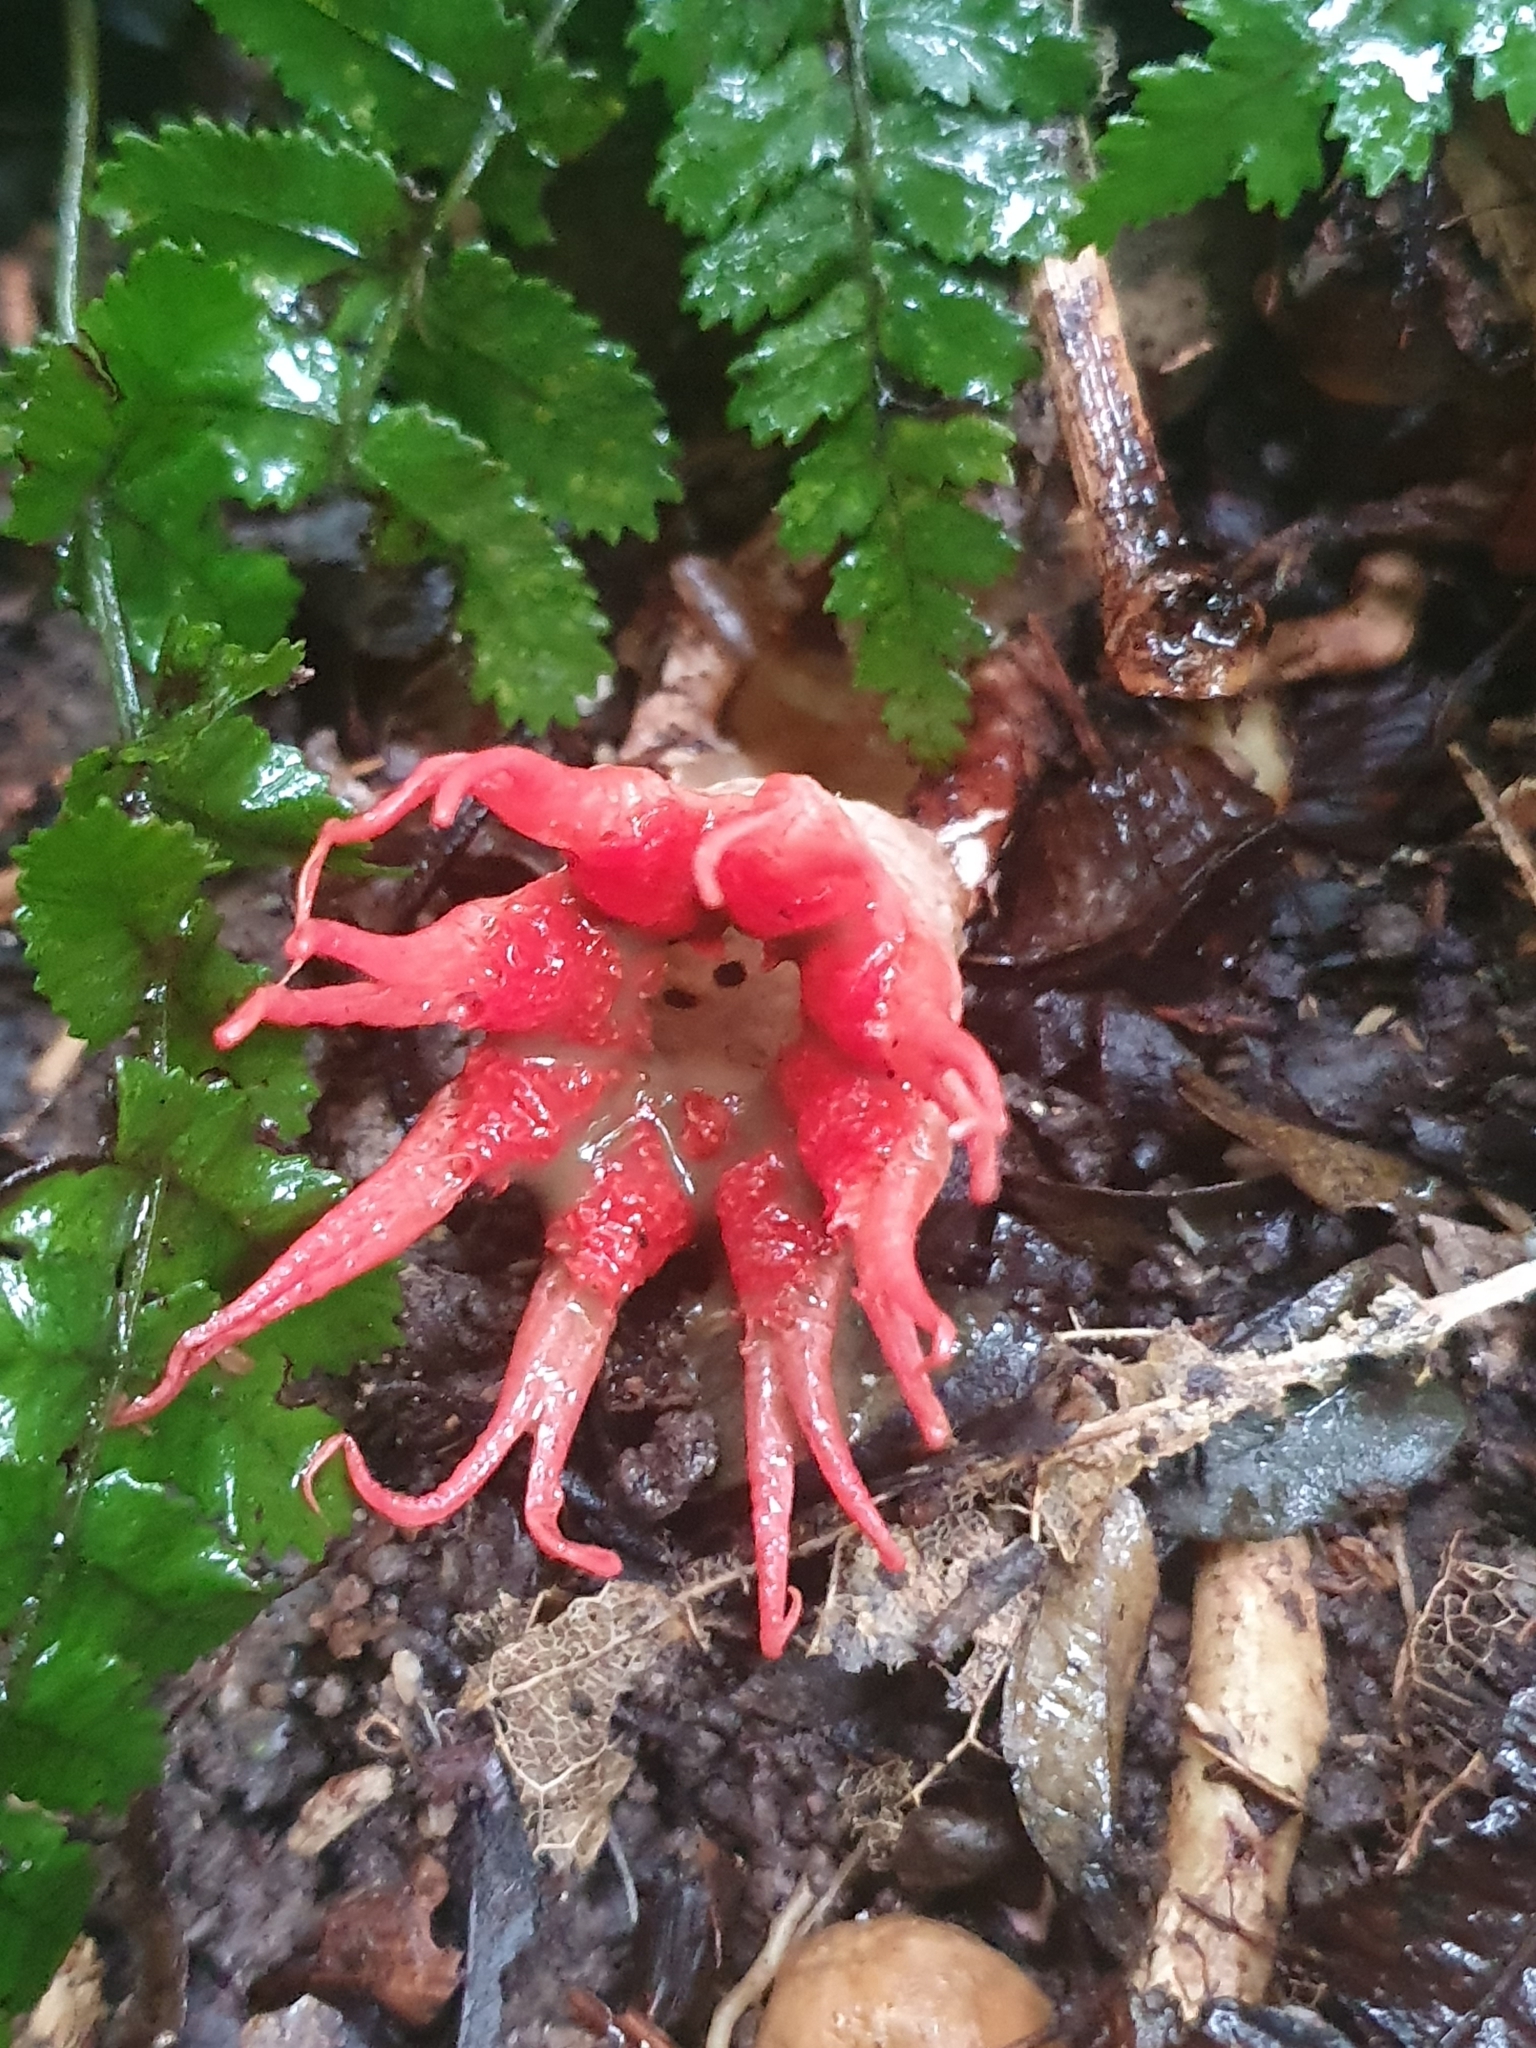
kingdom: Fungi
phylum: Basidiomycota
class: Agaricomycetes
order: Phallales
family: Phallaceae
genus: Aseroe
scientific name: Aseroe rubra
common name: Starfish fungus
